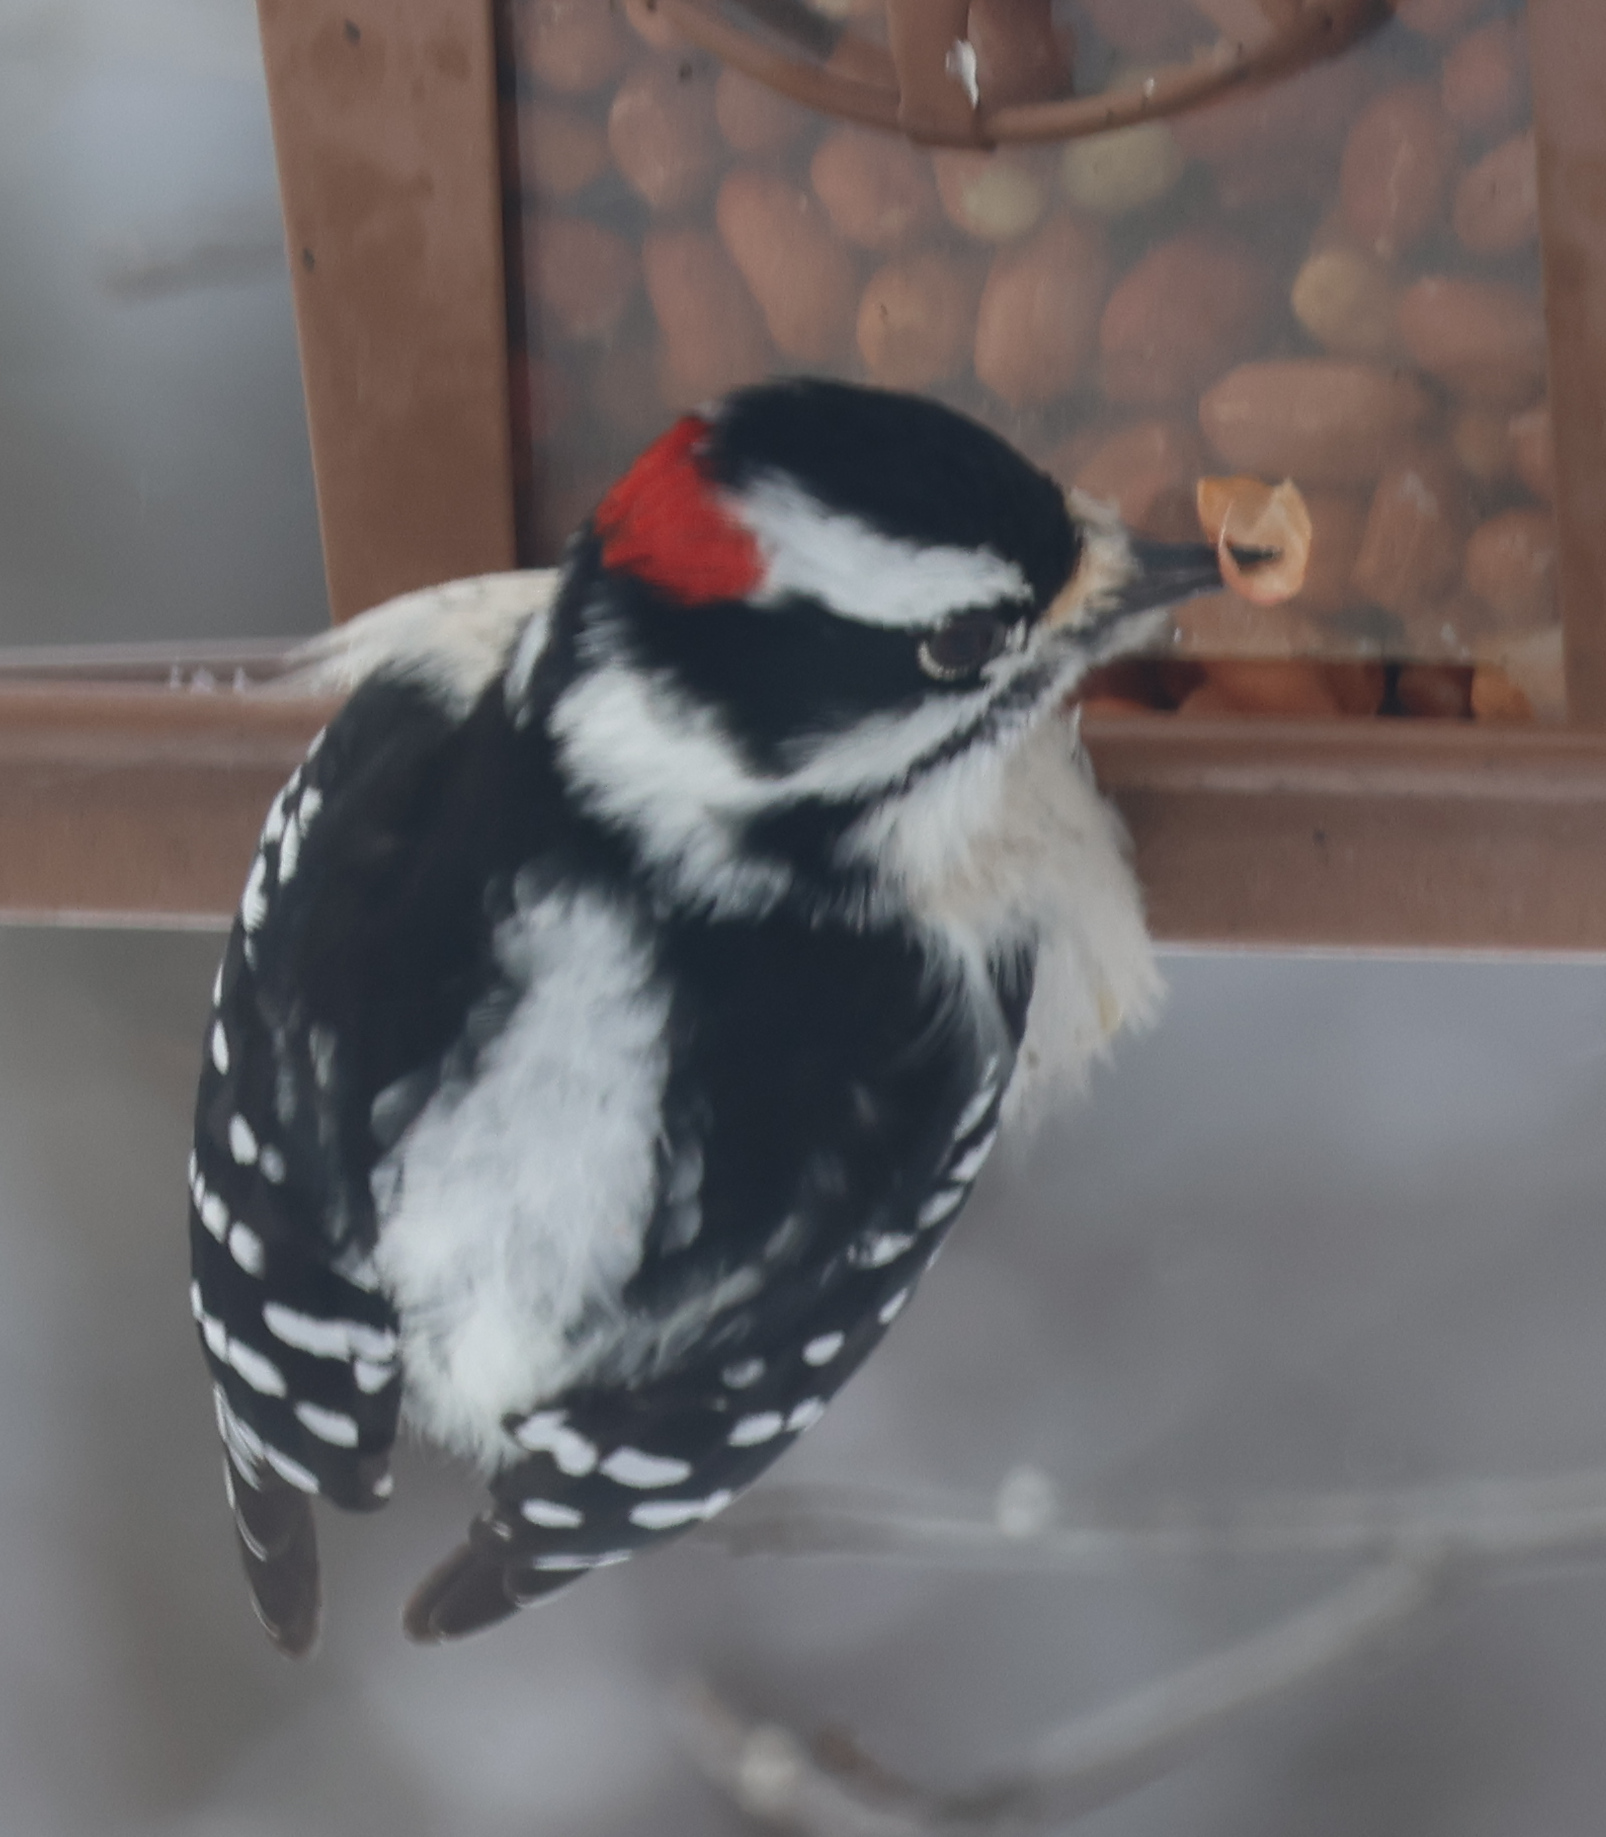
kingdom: Animalia
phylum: Chordata
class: Aves
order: Piciformes
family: Picidae
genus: Dryobates
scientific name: Dryobates pubescens
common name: Downy woodpecker
